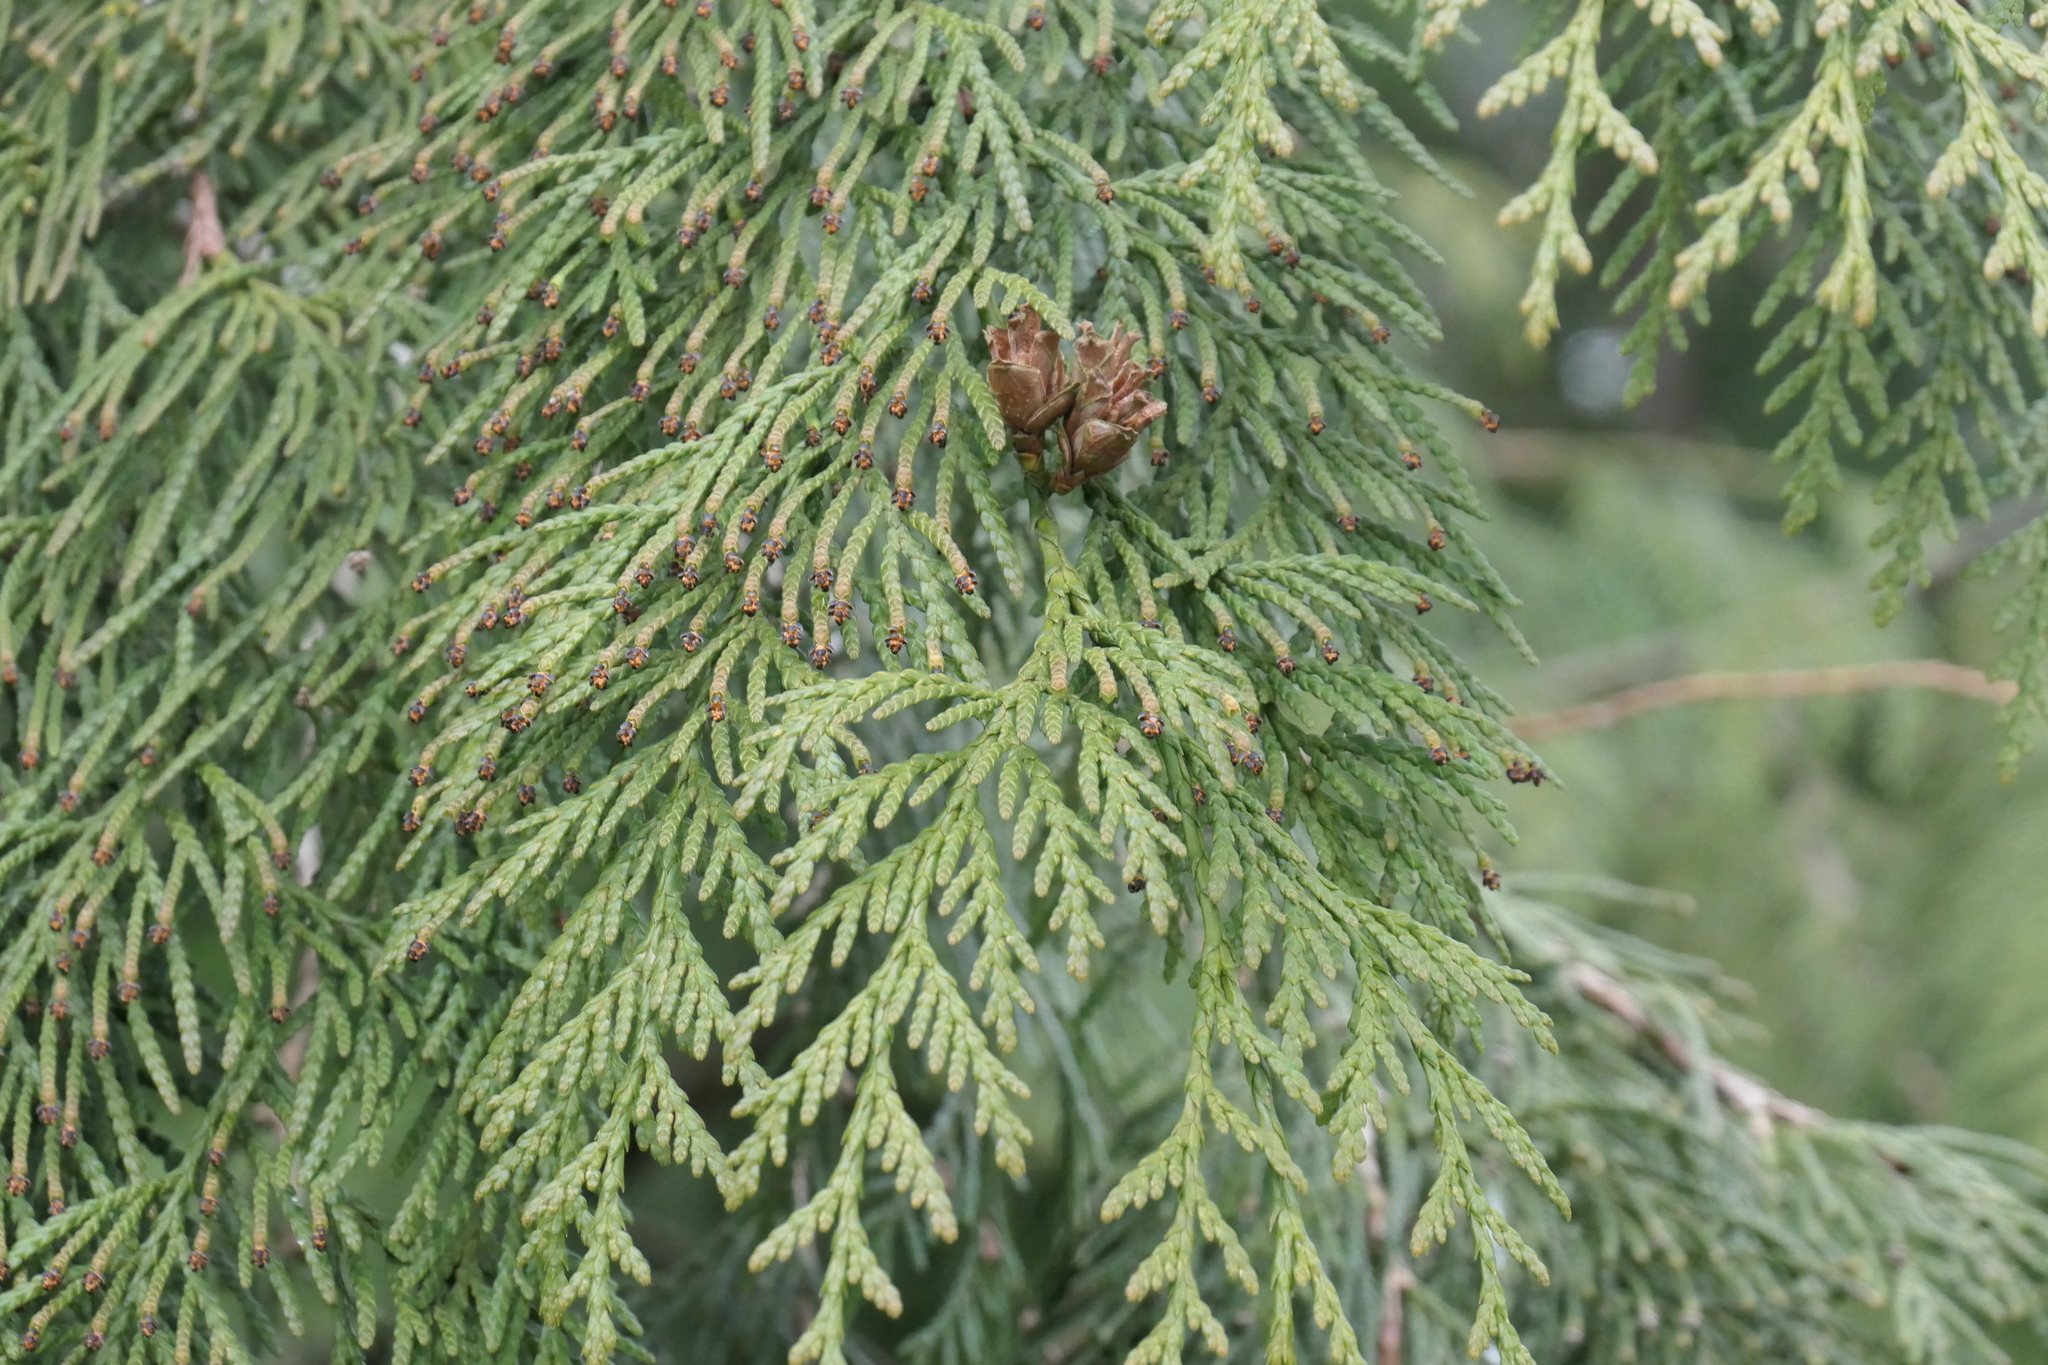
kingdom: Plantae
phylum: Tracheophyta
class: Pinopsida
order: Pinales
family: Cupressaceae
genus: Thuja
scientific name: Thuja plicata
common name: Western red-cedar
